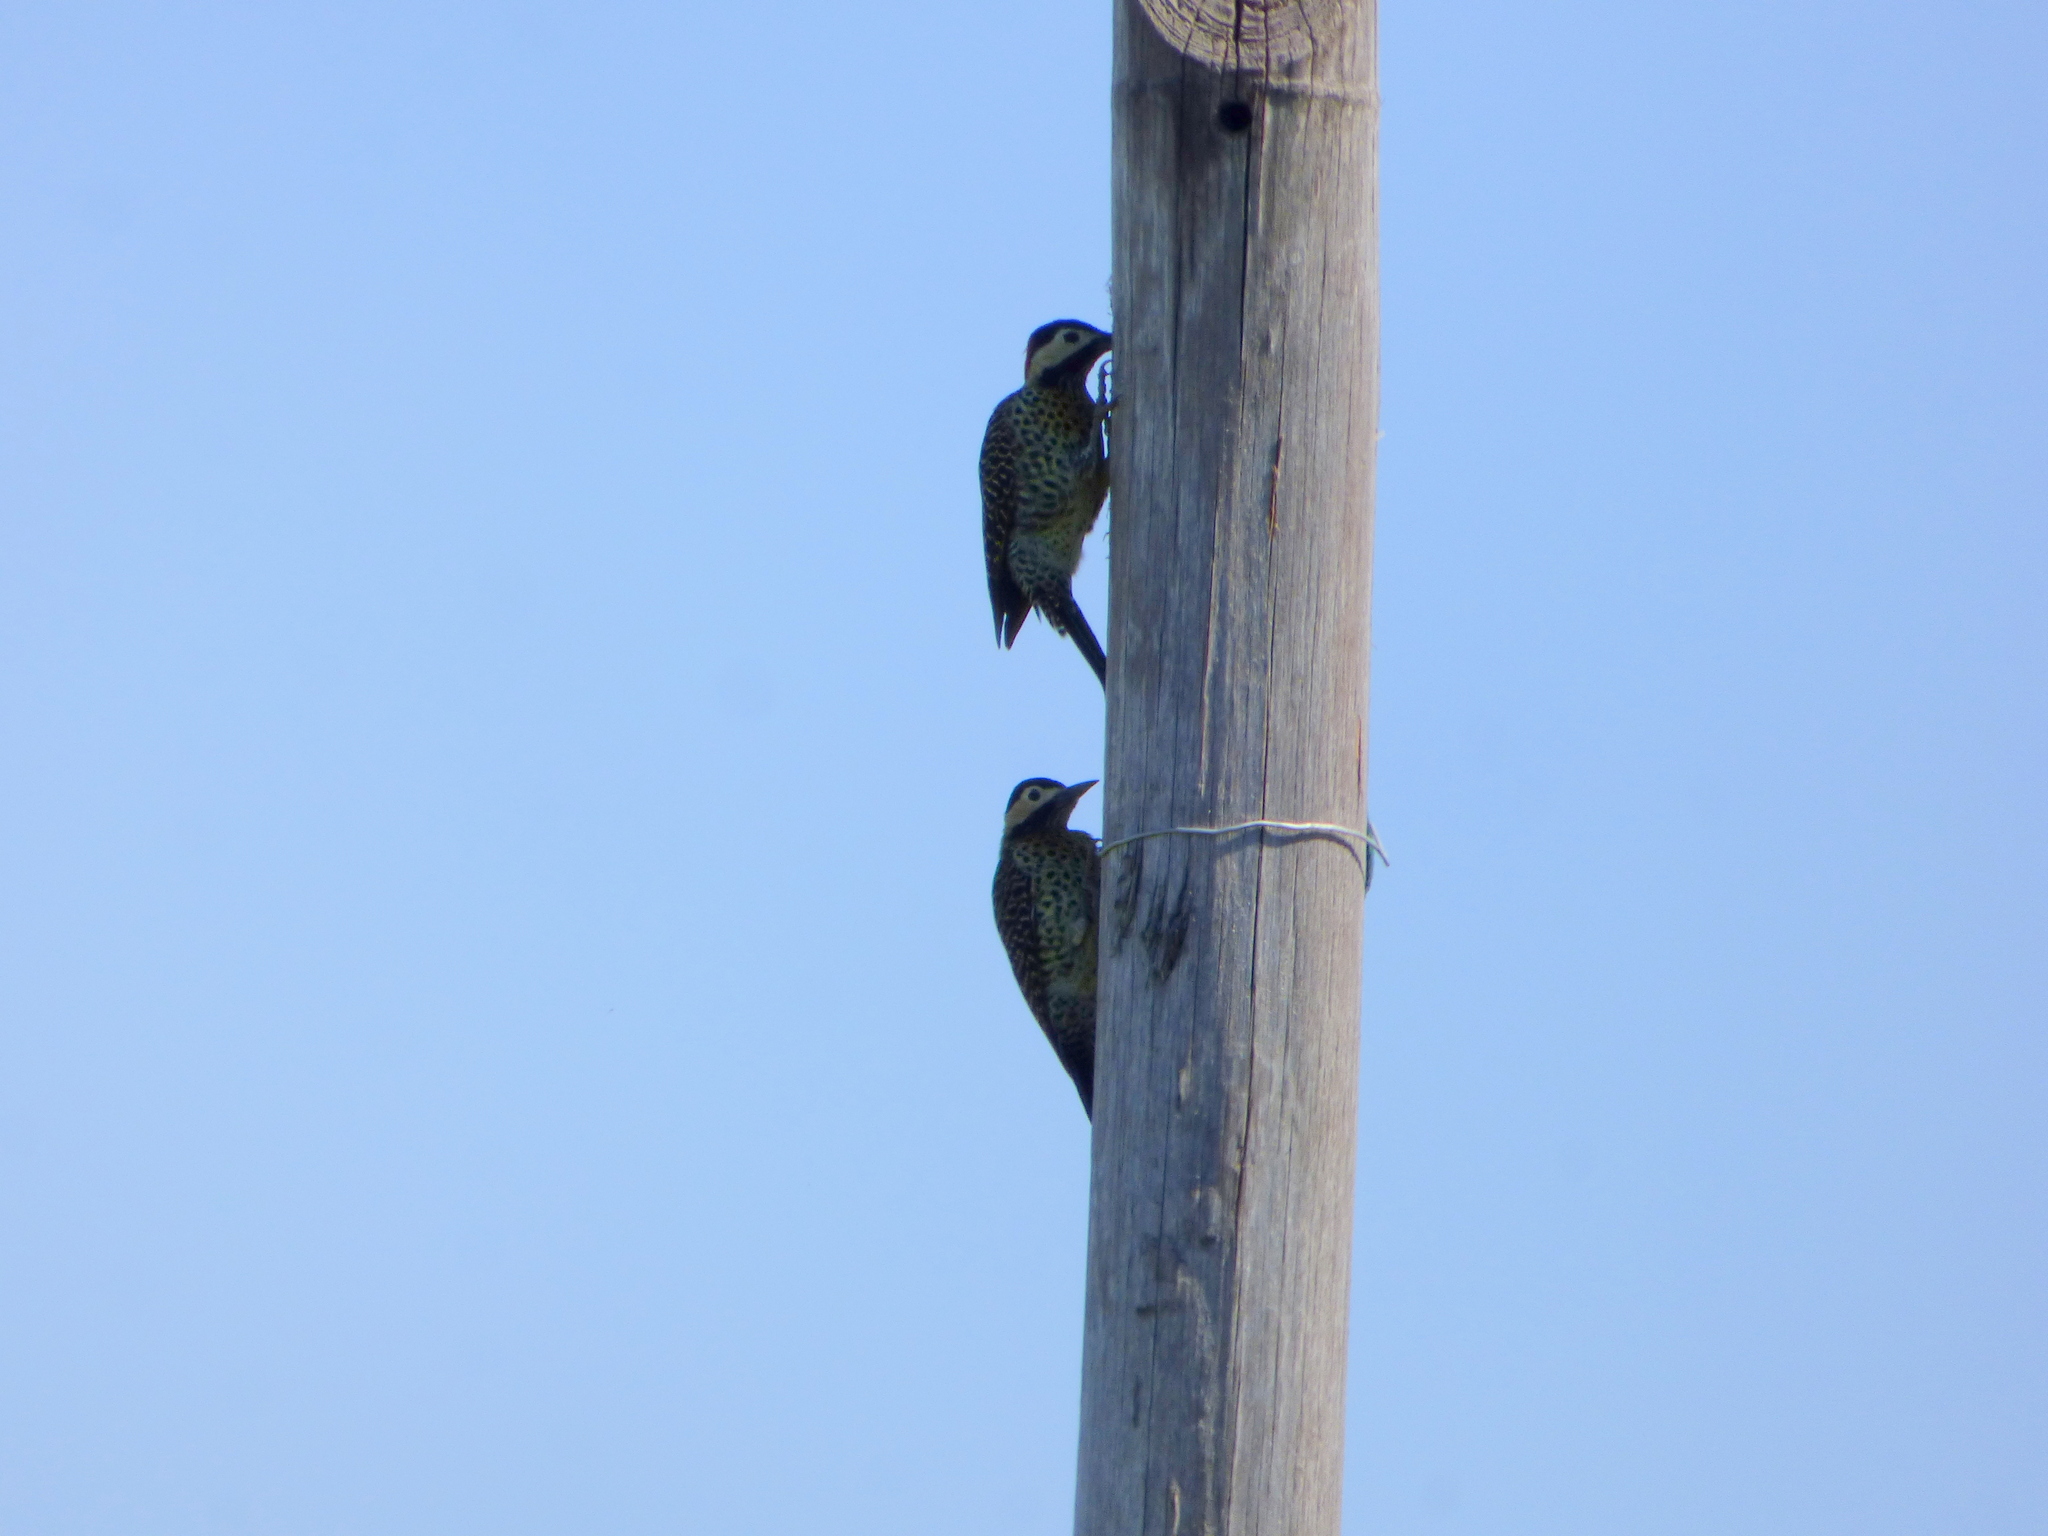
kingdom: Animalia
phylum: Chordata
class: Aves
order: Piciformes
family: Picidae
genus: Colaptes
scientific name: Colaptes melanochloros
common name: Green-barred woodpecker
